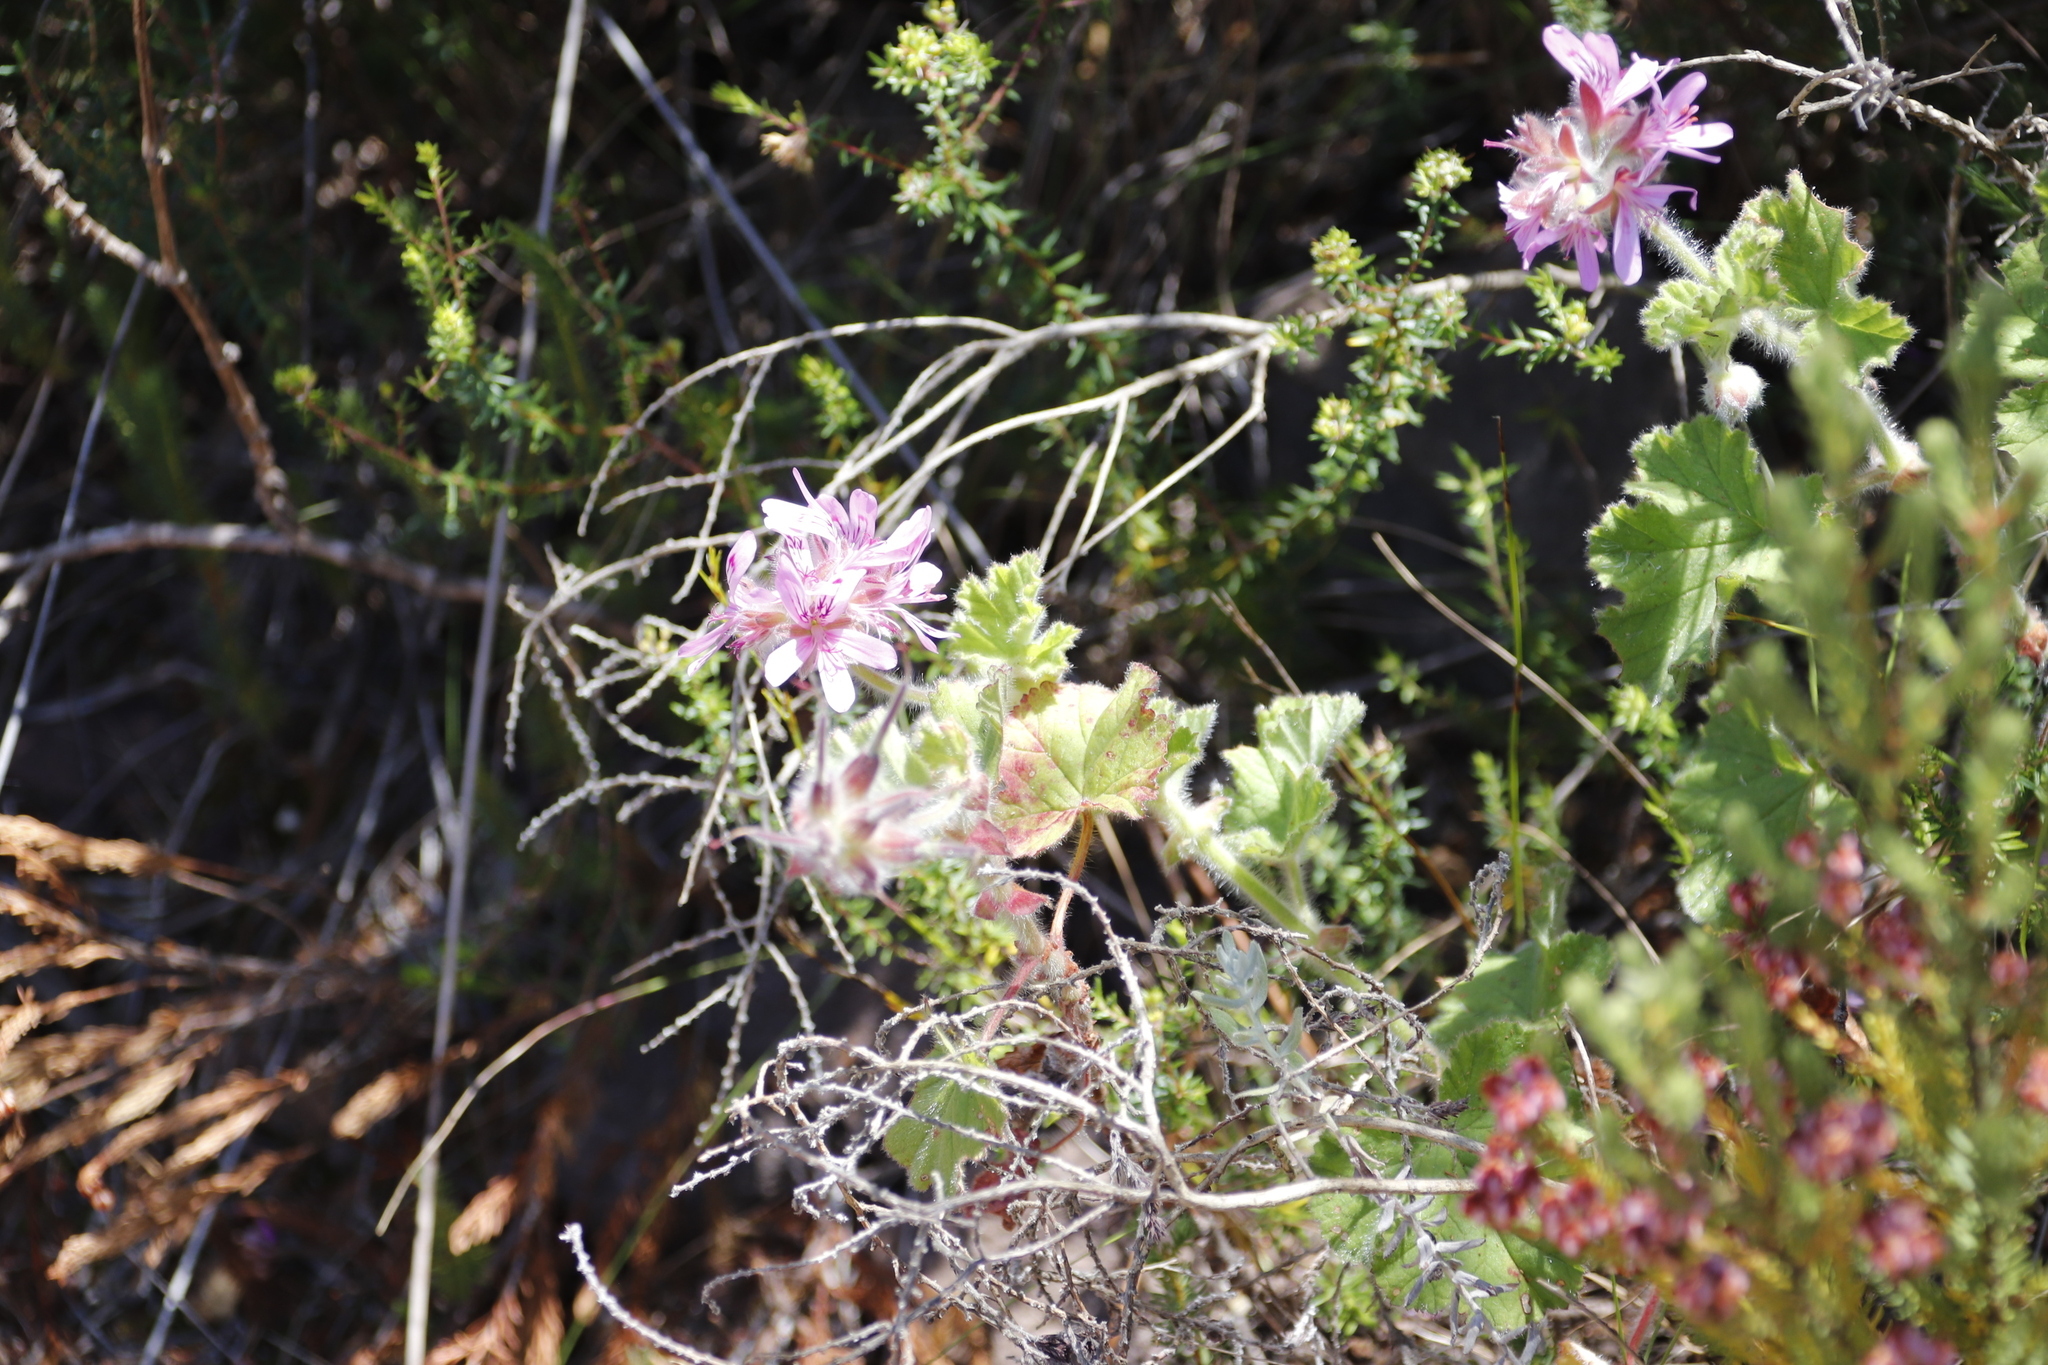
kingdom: Plantae
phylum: Tracheophyta
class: Magnoliopsida
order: Geraniales
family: Geraniaceae
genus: Pelargonium
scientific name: Pelargonium capitatum
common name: Rose scented geranium
